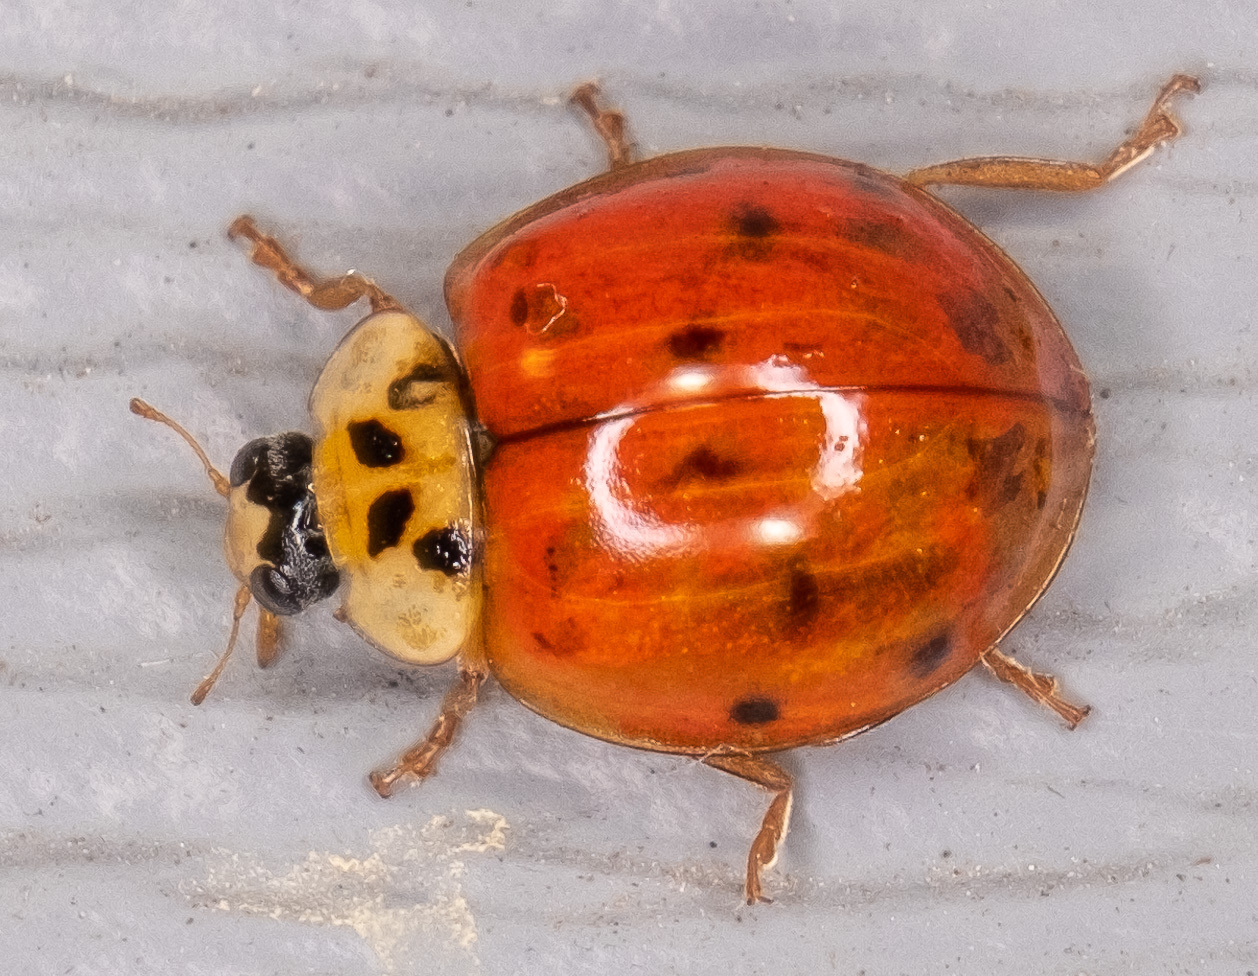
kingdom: Animalia
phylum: Arthropoda
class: Insecta
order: Coleoptera
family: Coccinellidae
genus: Harmonia
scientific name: Harmonia axyridis
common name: Harlequin ladybird
